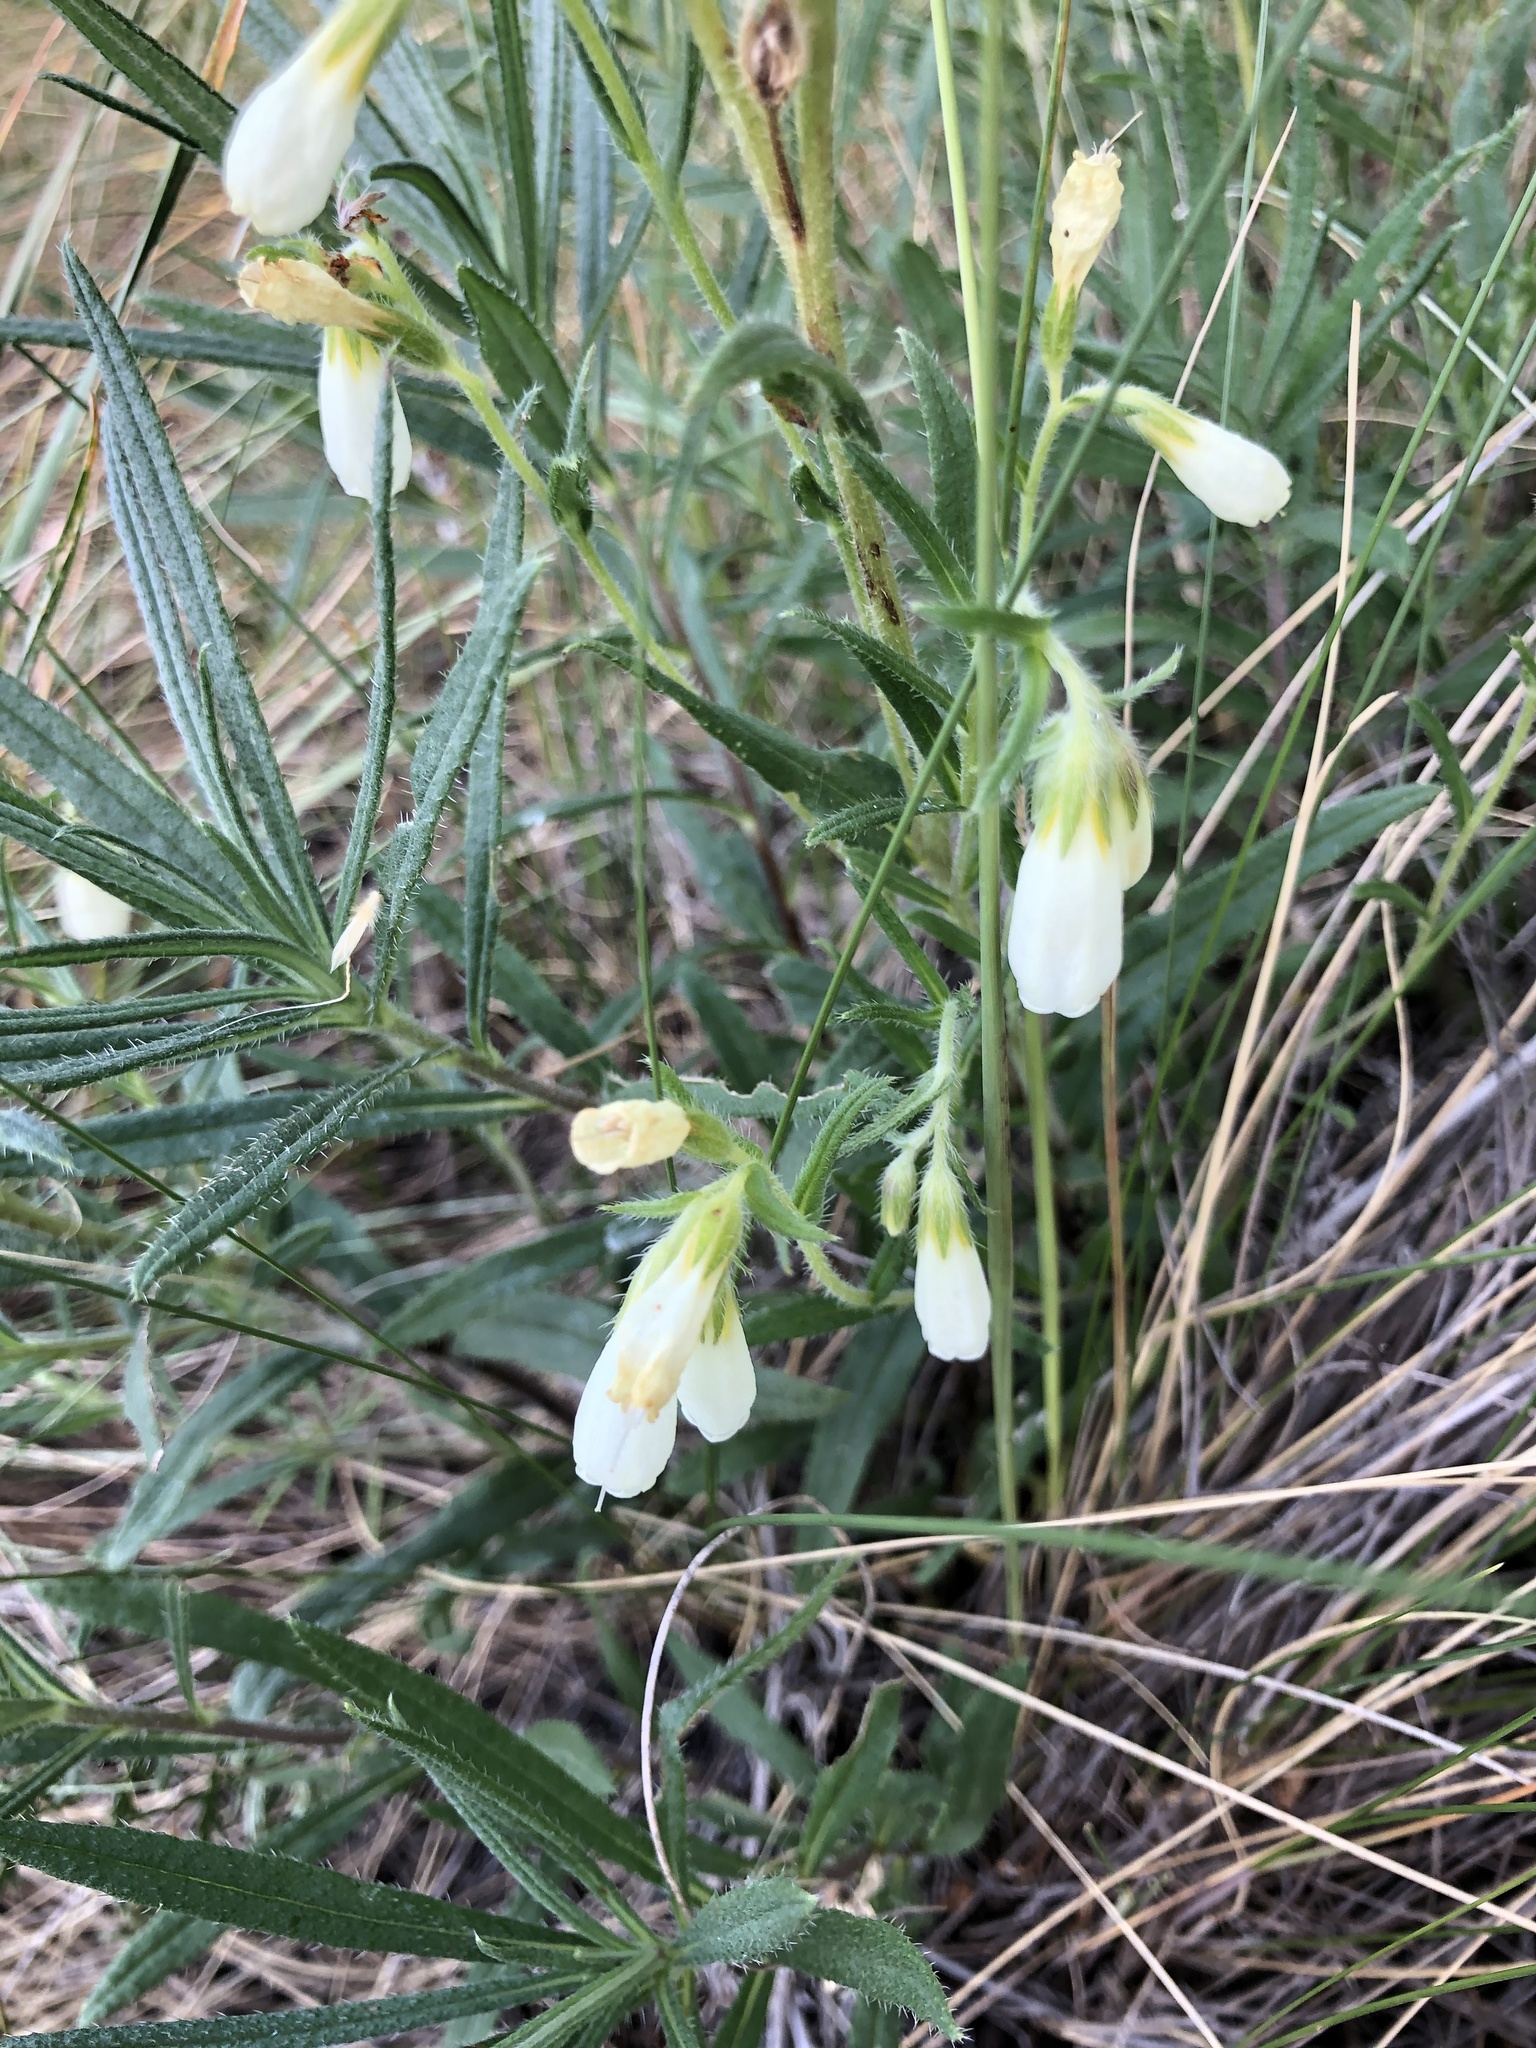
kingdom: Plantae
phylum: Tracheophyta
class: Magnoliopsida
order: Boraginales
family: Boraginaceae
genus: Onosma
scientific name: Onosma simplicissima
